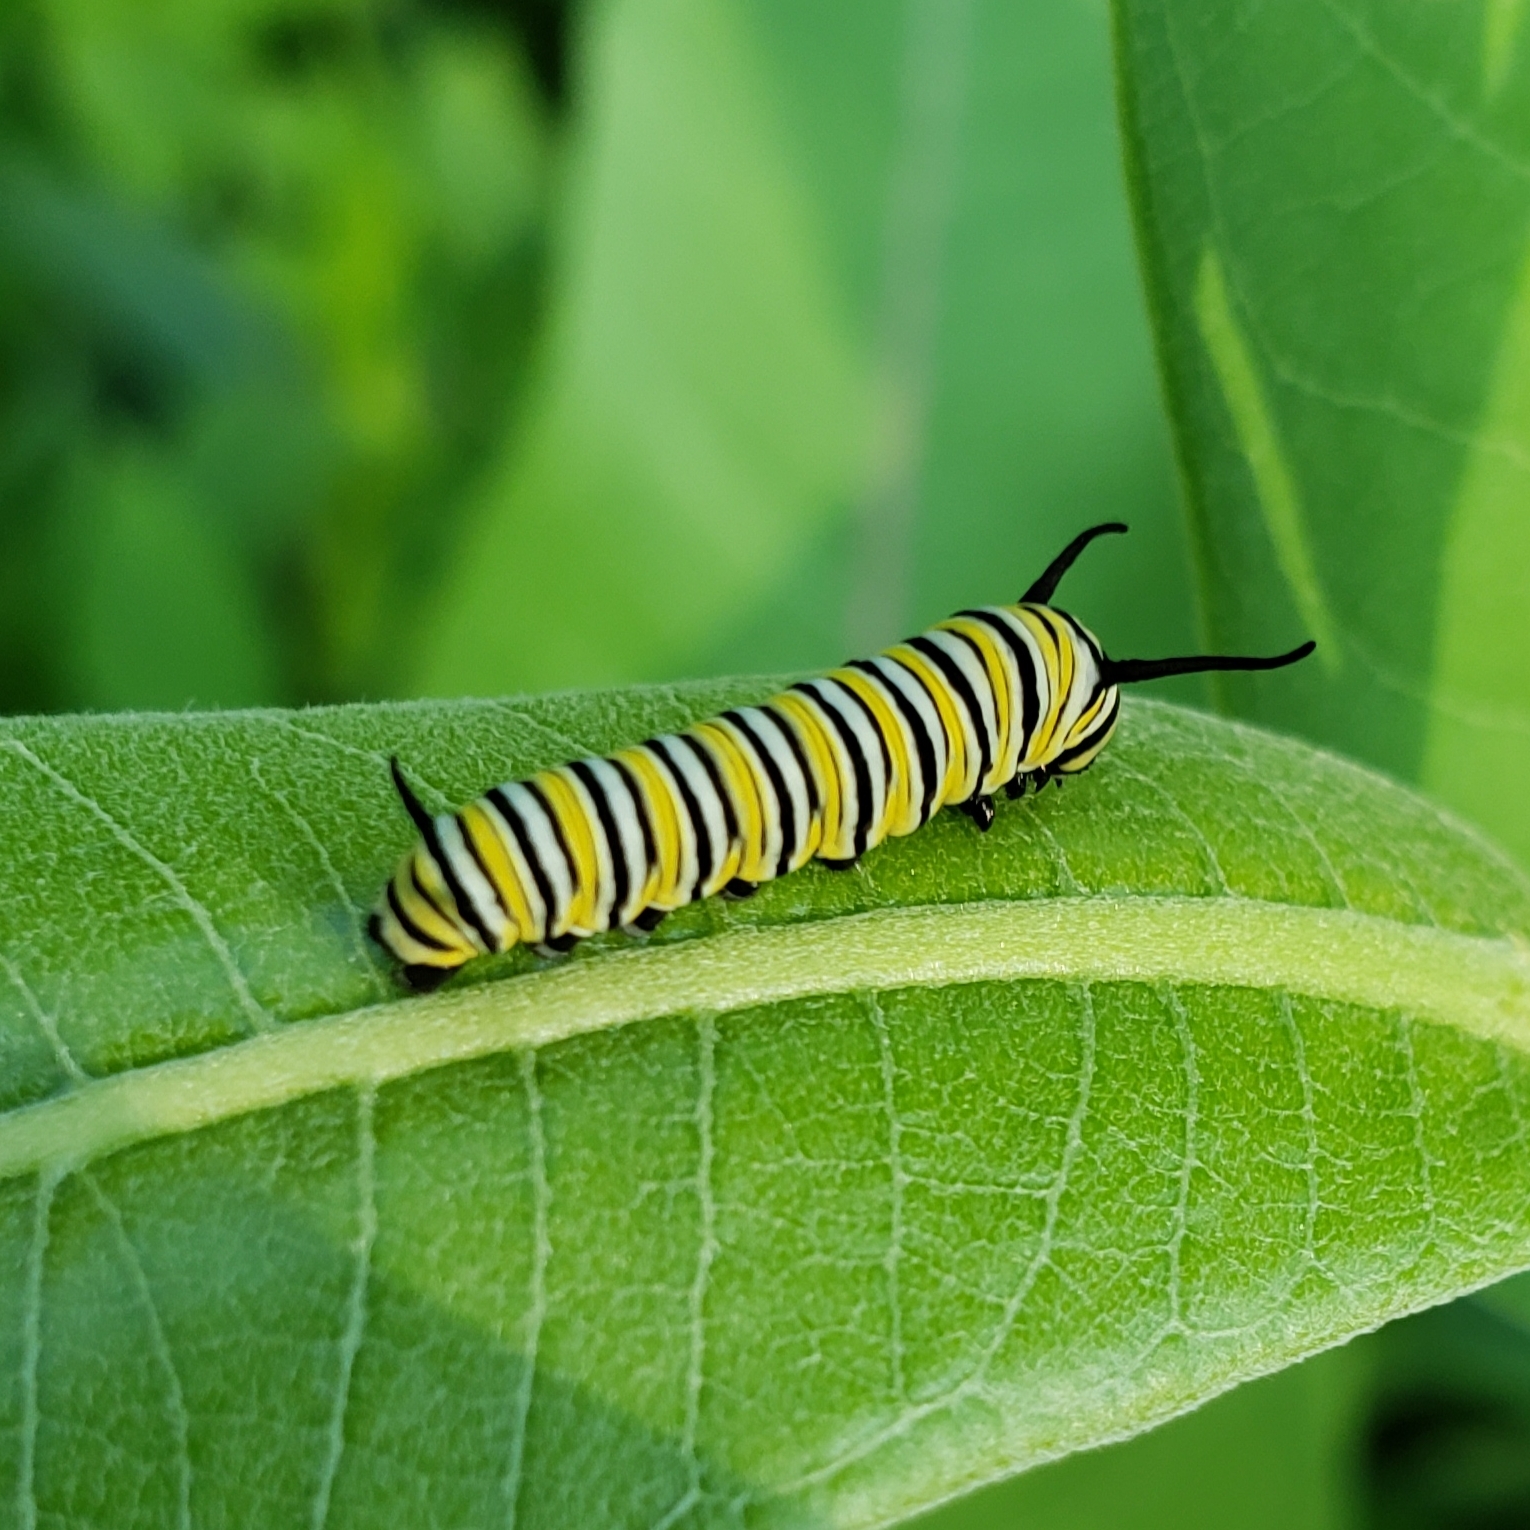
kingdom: Animalia
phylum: Arthropoda
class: Insecta
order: Lepidoptera
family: Nymphalidae
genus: Danaus
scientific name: Danaus plexippus
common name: Monarch
